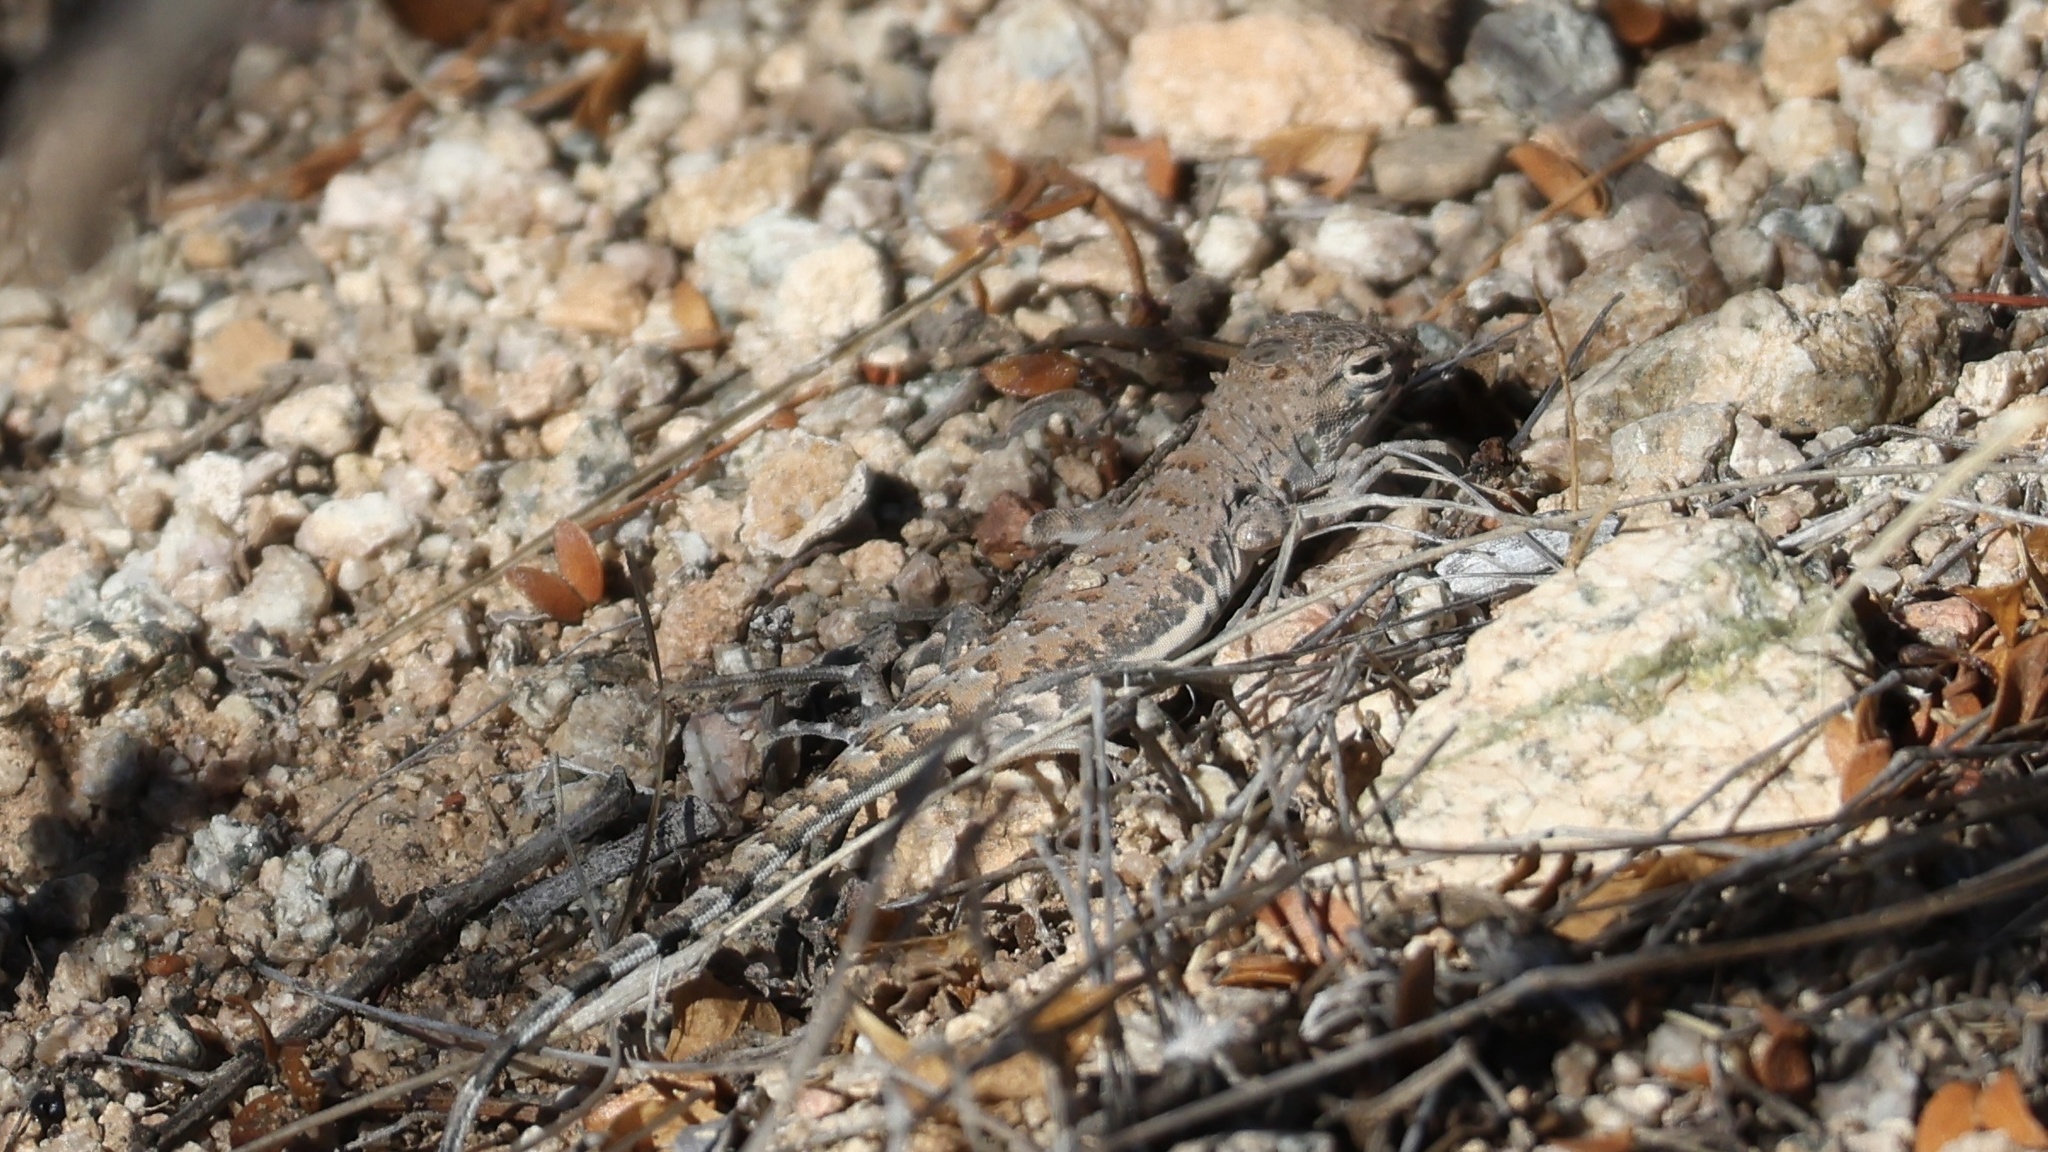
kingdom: Animalia
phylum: Chordata
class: Squamata
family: Phrynosomatidae
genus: Callisaurus
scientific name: Callisaurus draconoides
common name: Zebra-tailed lizard
